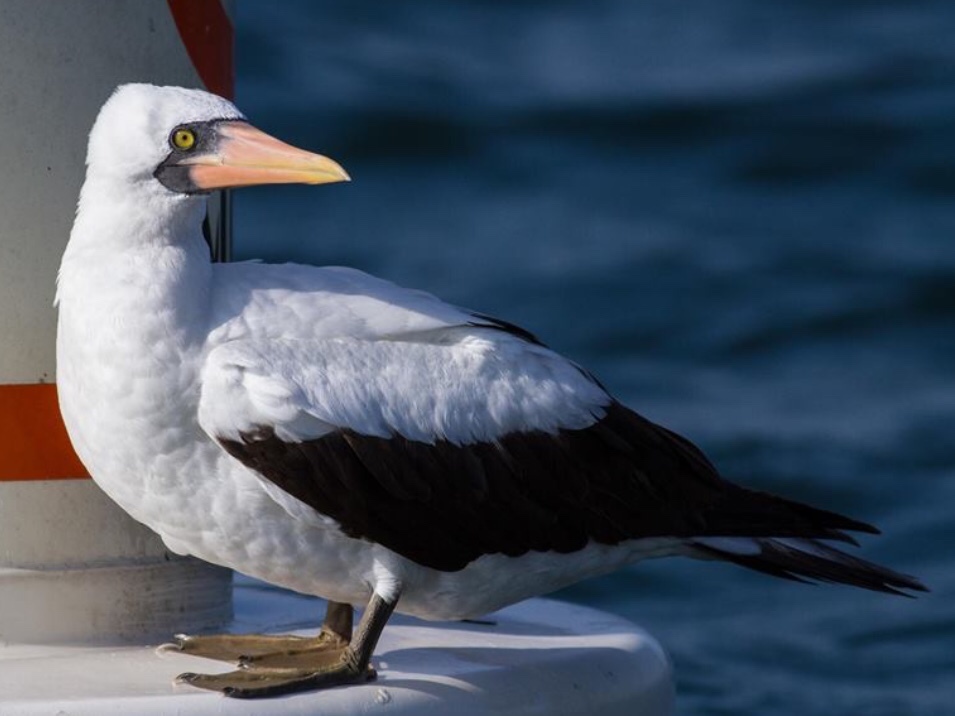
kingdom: Animalia
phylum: Chordata
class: Aves
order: Suliformes
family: Sulidae
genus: Sula
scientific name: Sula granti
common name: Nazca booby
